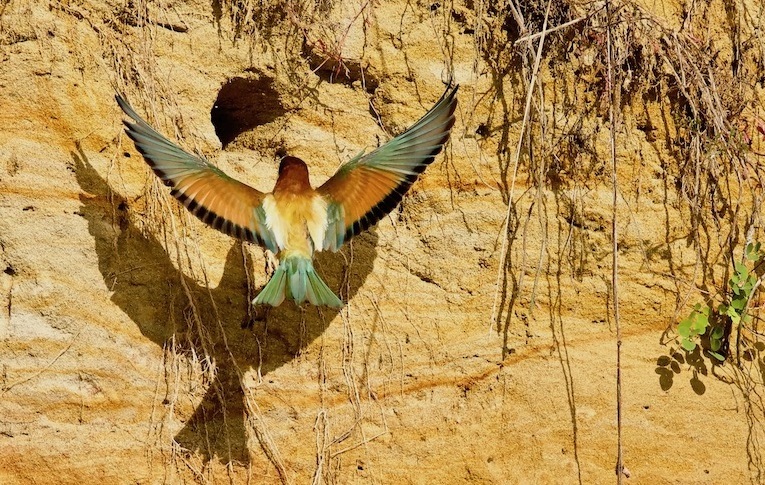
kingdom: Animalia
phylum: Chordata
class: Aves
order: Coraciiformes
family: Meropidae
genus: Merops
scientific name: Merops apiaster
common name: European bee-eater
